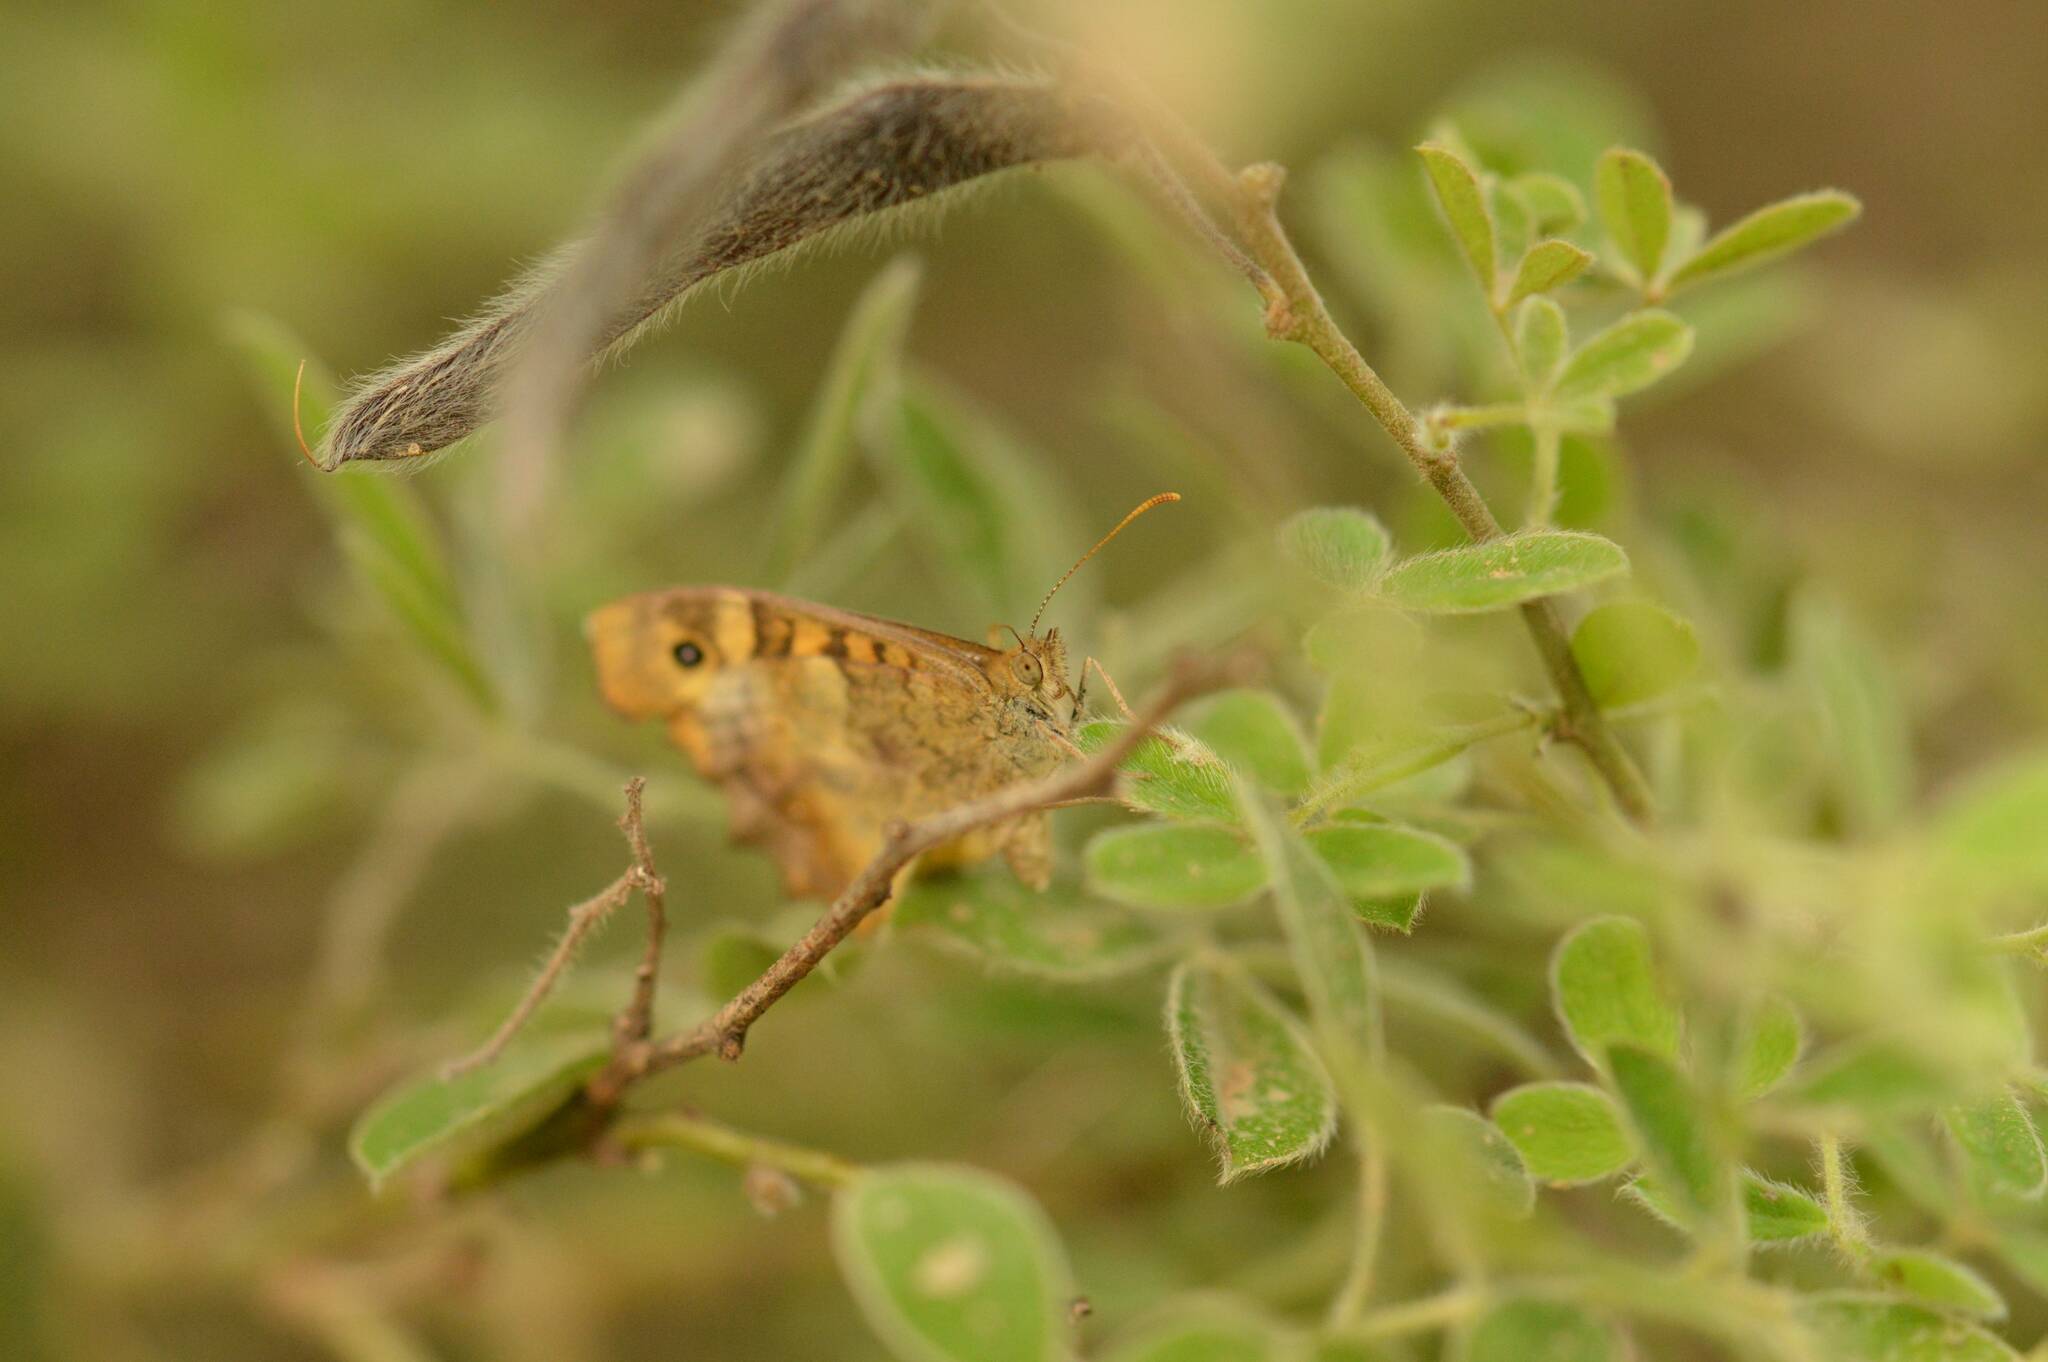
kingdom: Animalia
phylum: Arthropoda
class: Insecta
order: Lepidoptera
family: Nymphalidae
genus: Pararge
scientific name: Pararge aegeria
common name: Speckled wood
